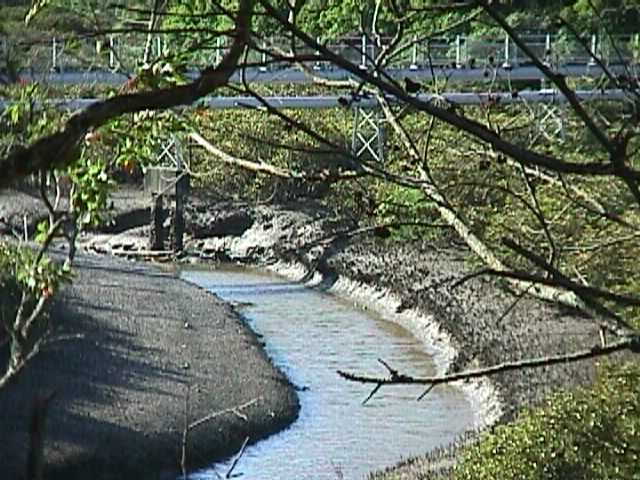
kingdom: Plantae
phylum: Tracheophyta
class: Magnoliopsida
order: Lamiales
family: Acanthaceae
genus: Avicennia
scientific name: Avicennia marina
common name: Gray mangrove
